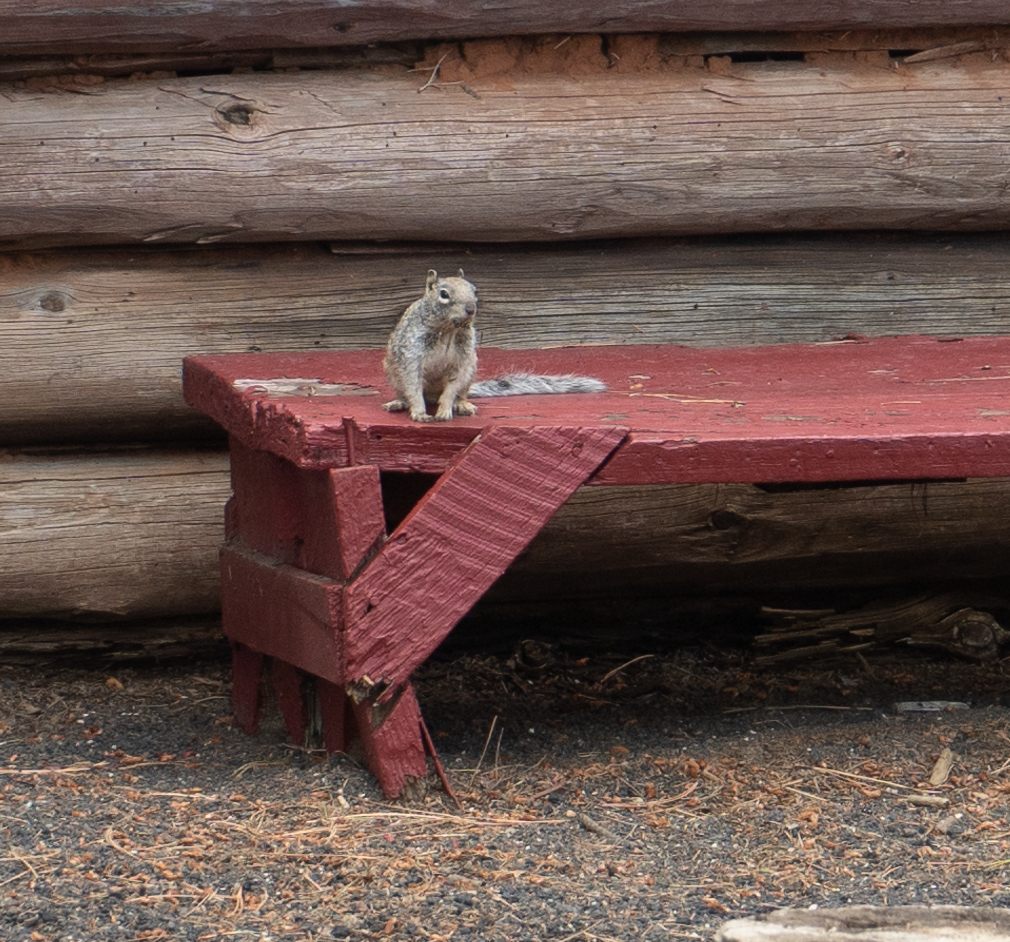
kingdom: Animalia
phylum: Chordata
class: Mammalia
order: Rodentia
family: Sciuridae
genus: Otospermophilus
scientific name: Otospermophilus variegatus
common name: Rock squirrel
